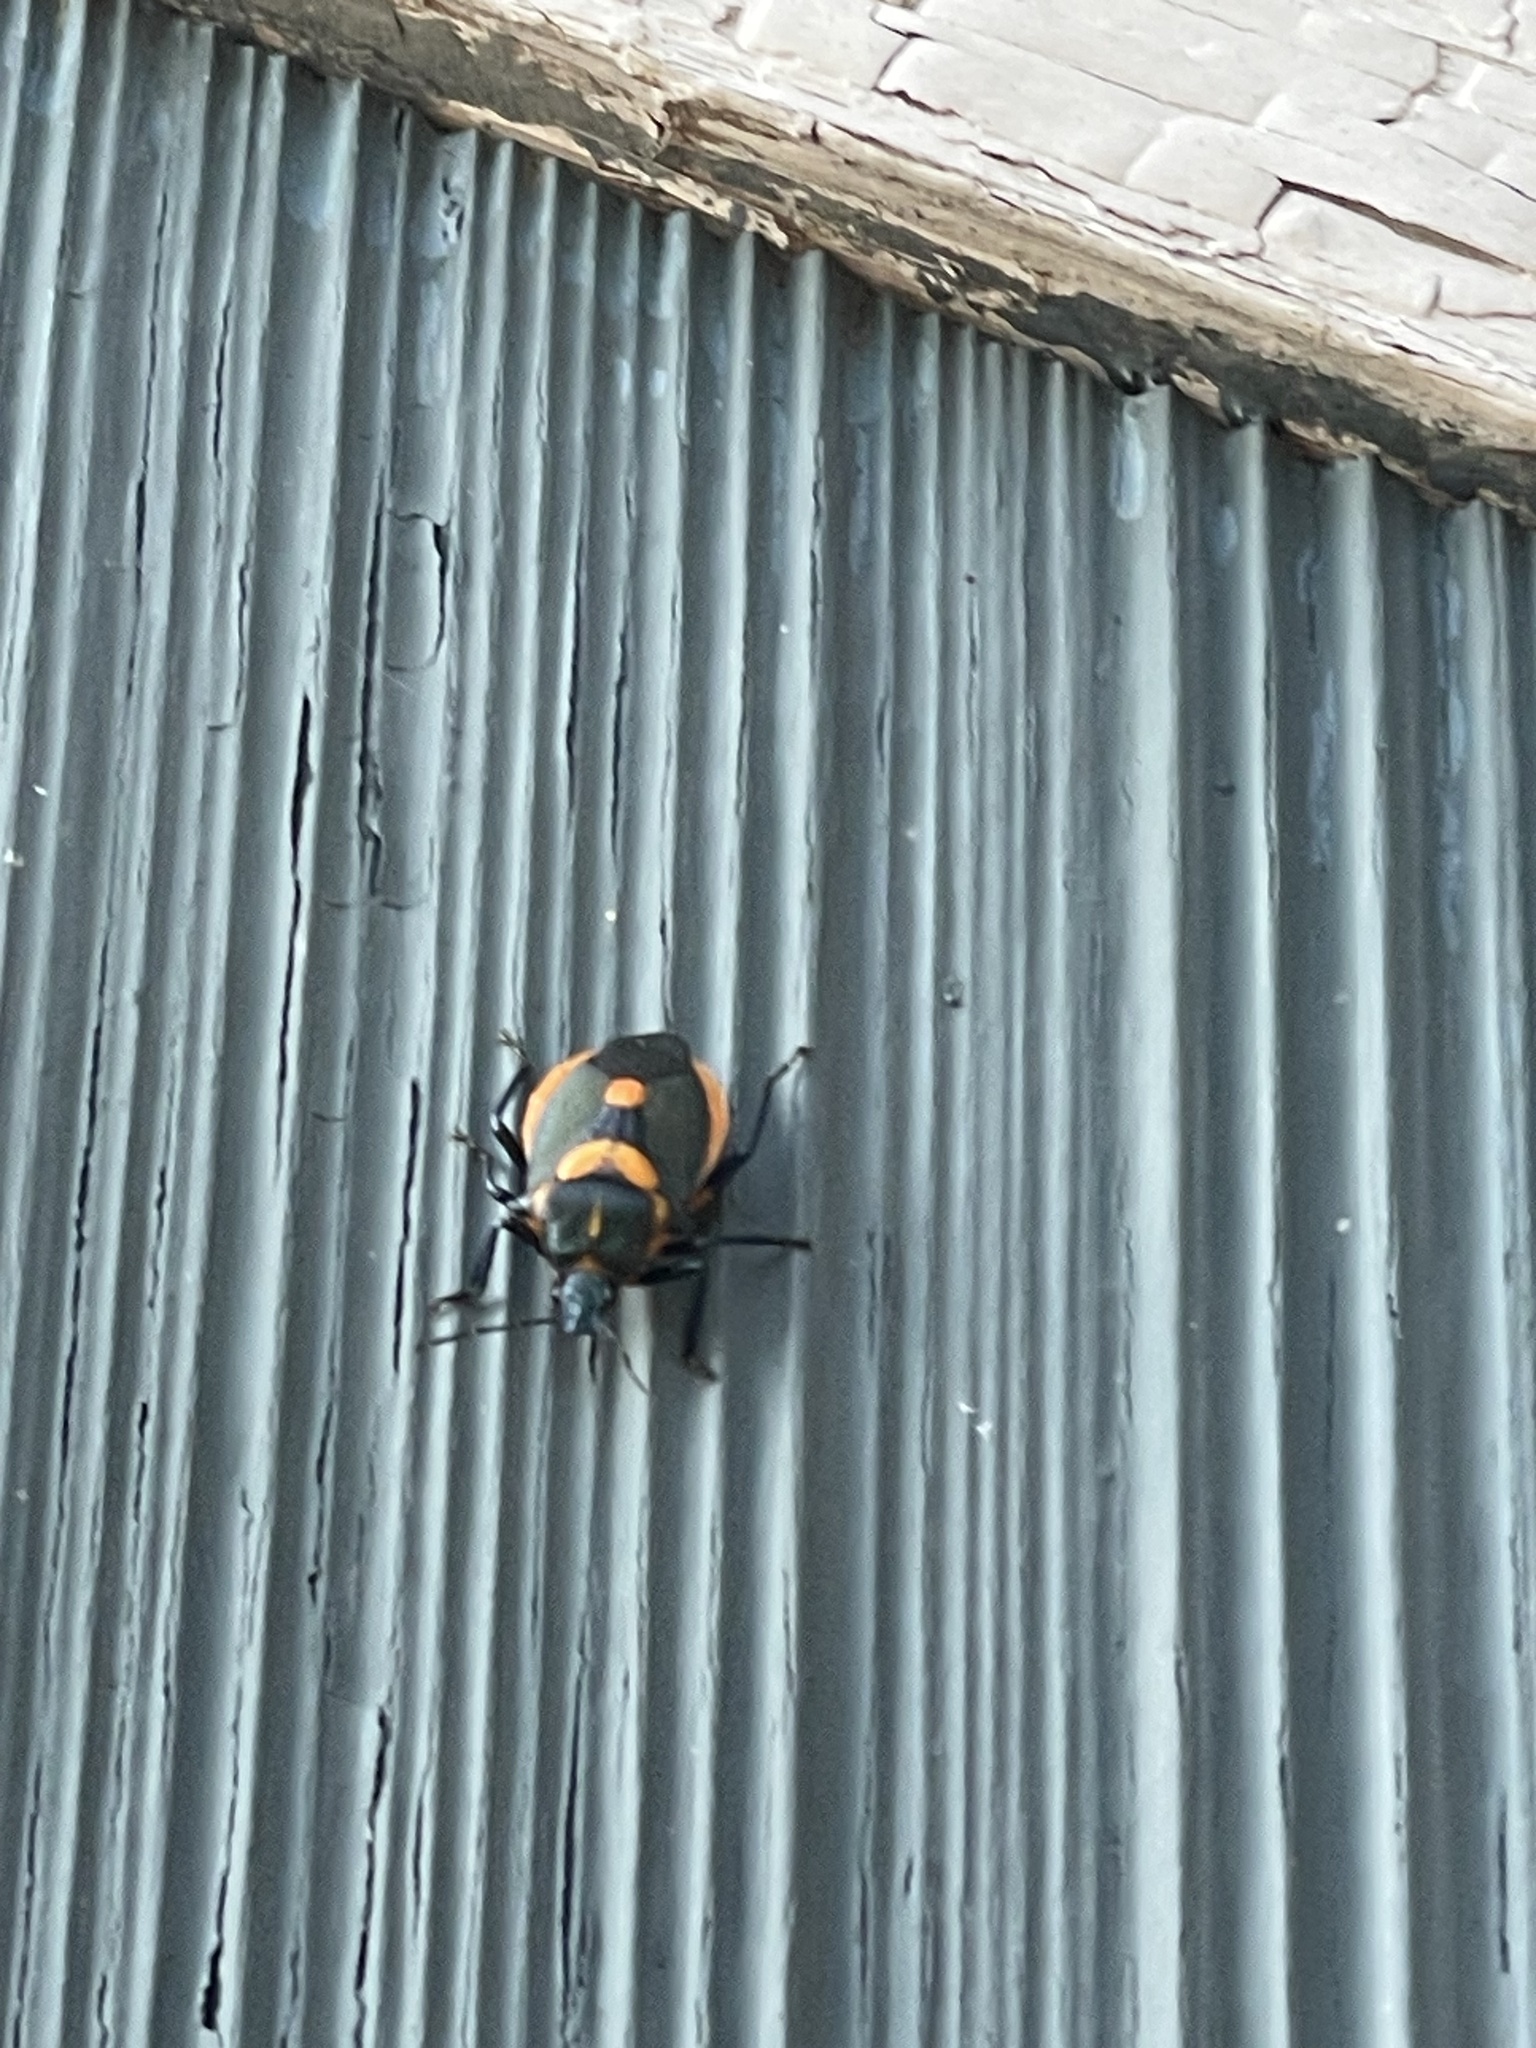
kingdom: Animalia
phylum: Arthropoda
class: Insecta
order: Hemiptera
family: Pentatomidae
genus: Euthyrhynchus
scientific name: Euthyrhynchus floridanus
